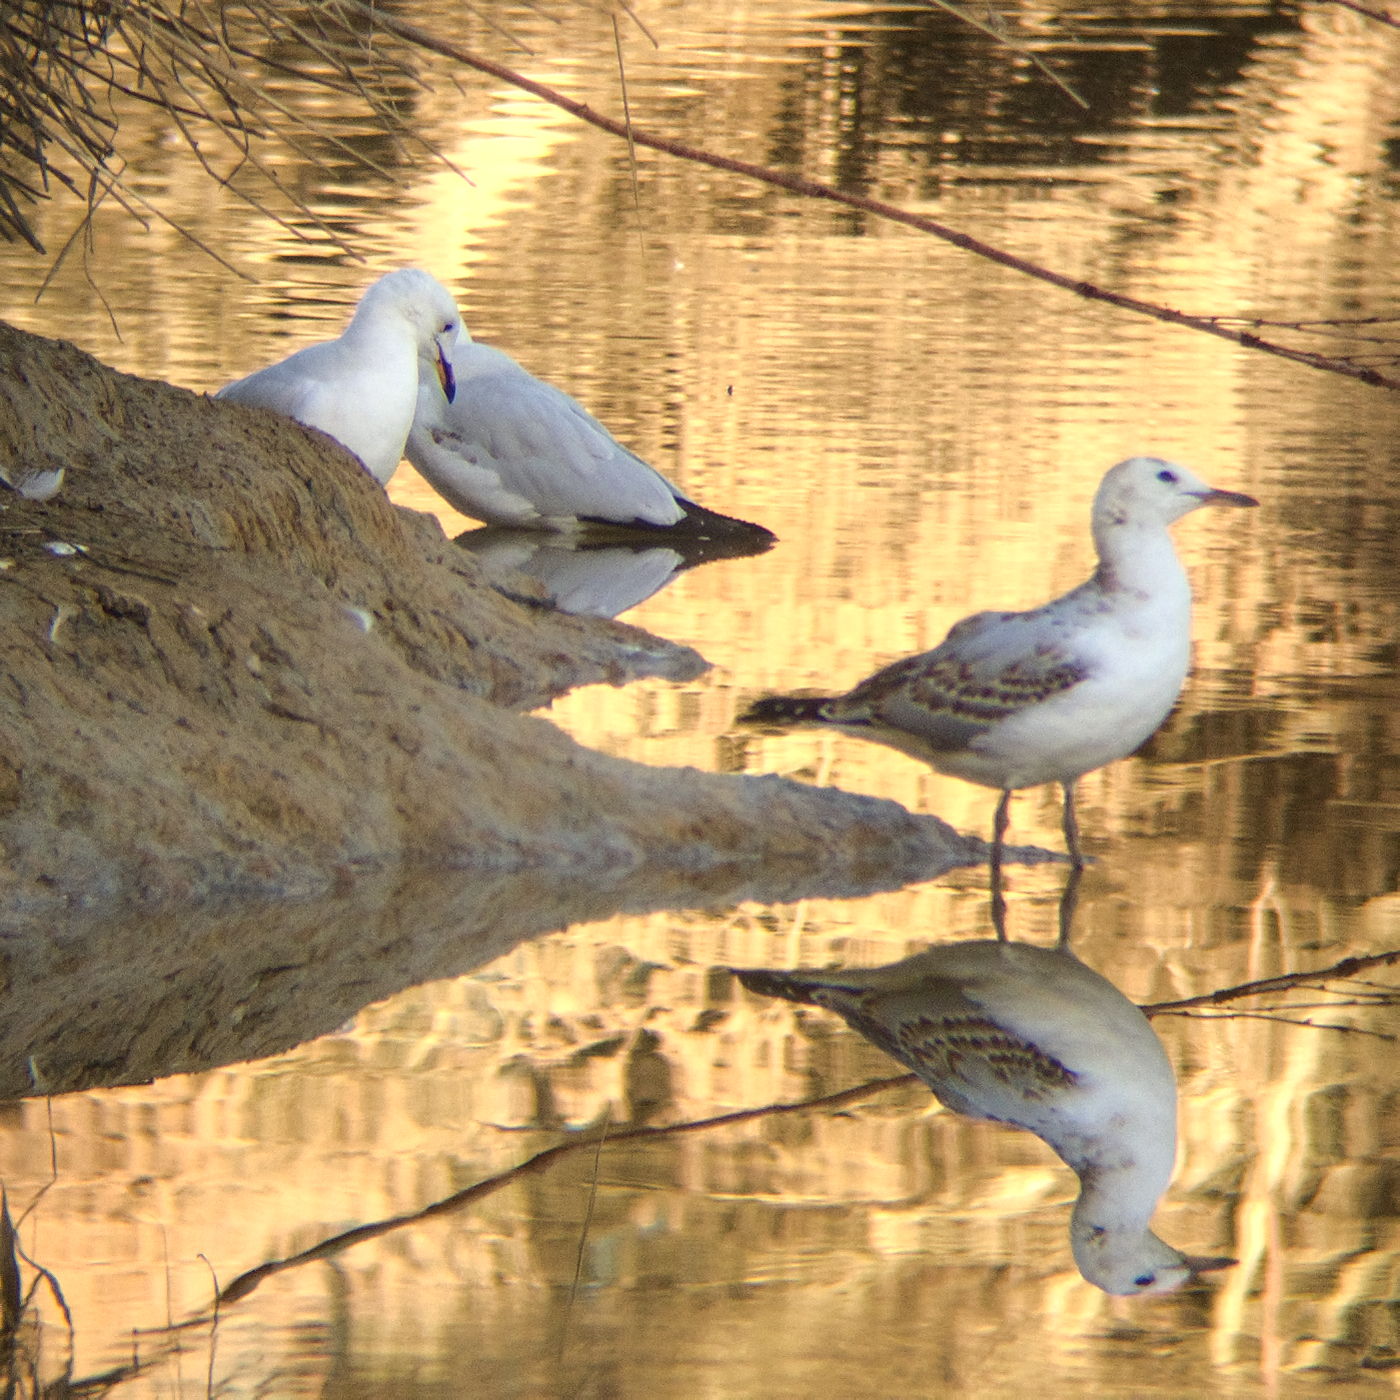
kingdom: Animalia
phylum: Chordata
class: Aves
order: Charadriiformes
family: Laridae
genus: Chroicocephalus
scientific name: Chroicocephalus novaehollandiae
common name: Silver gull
